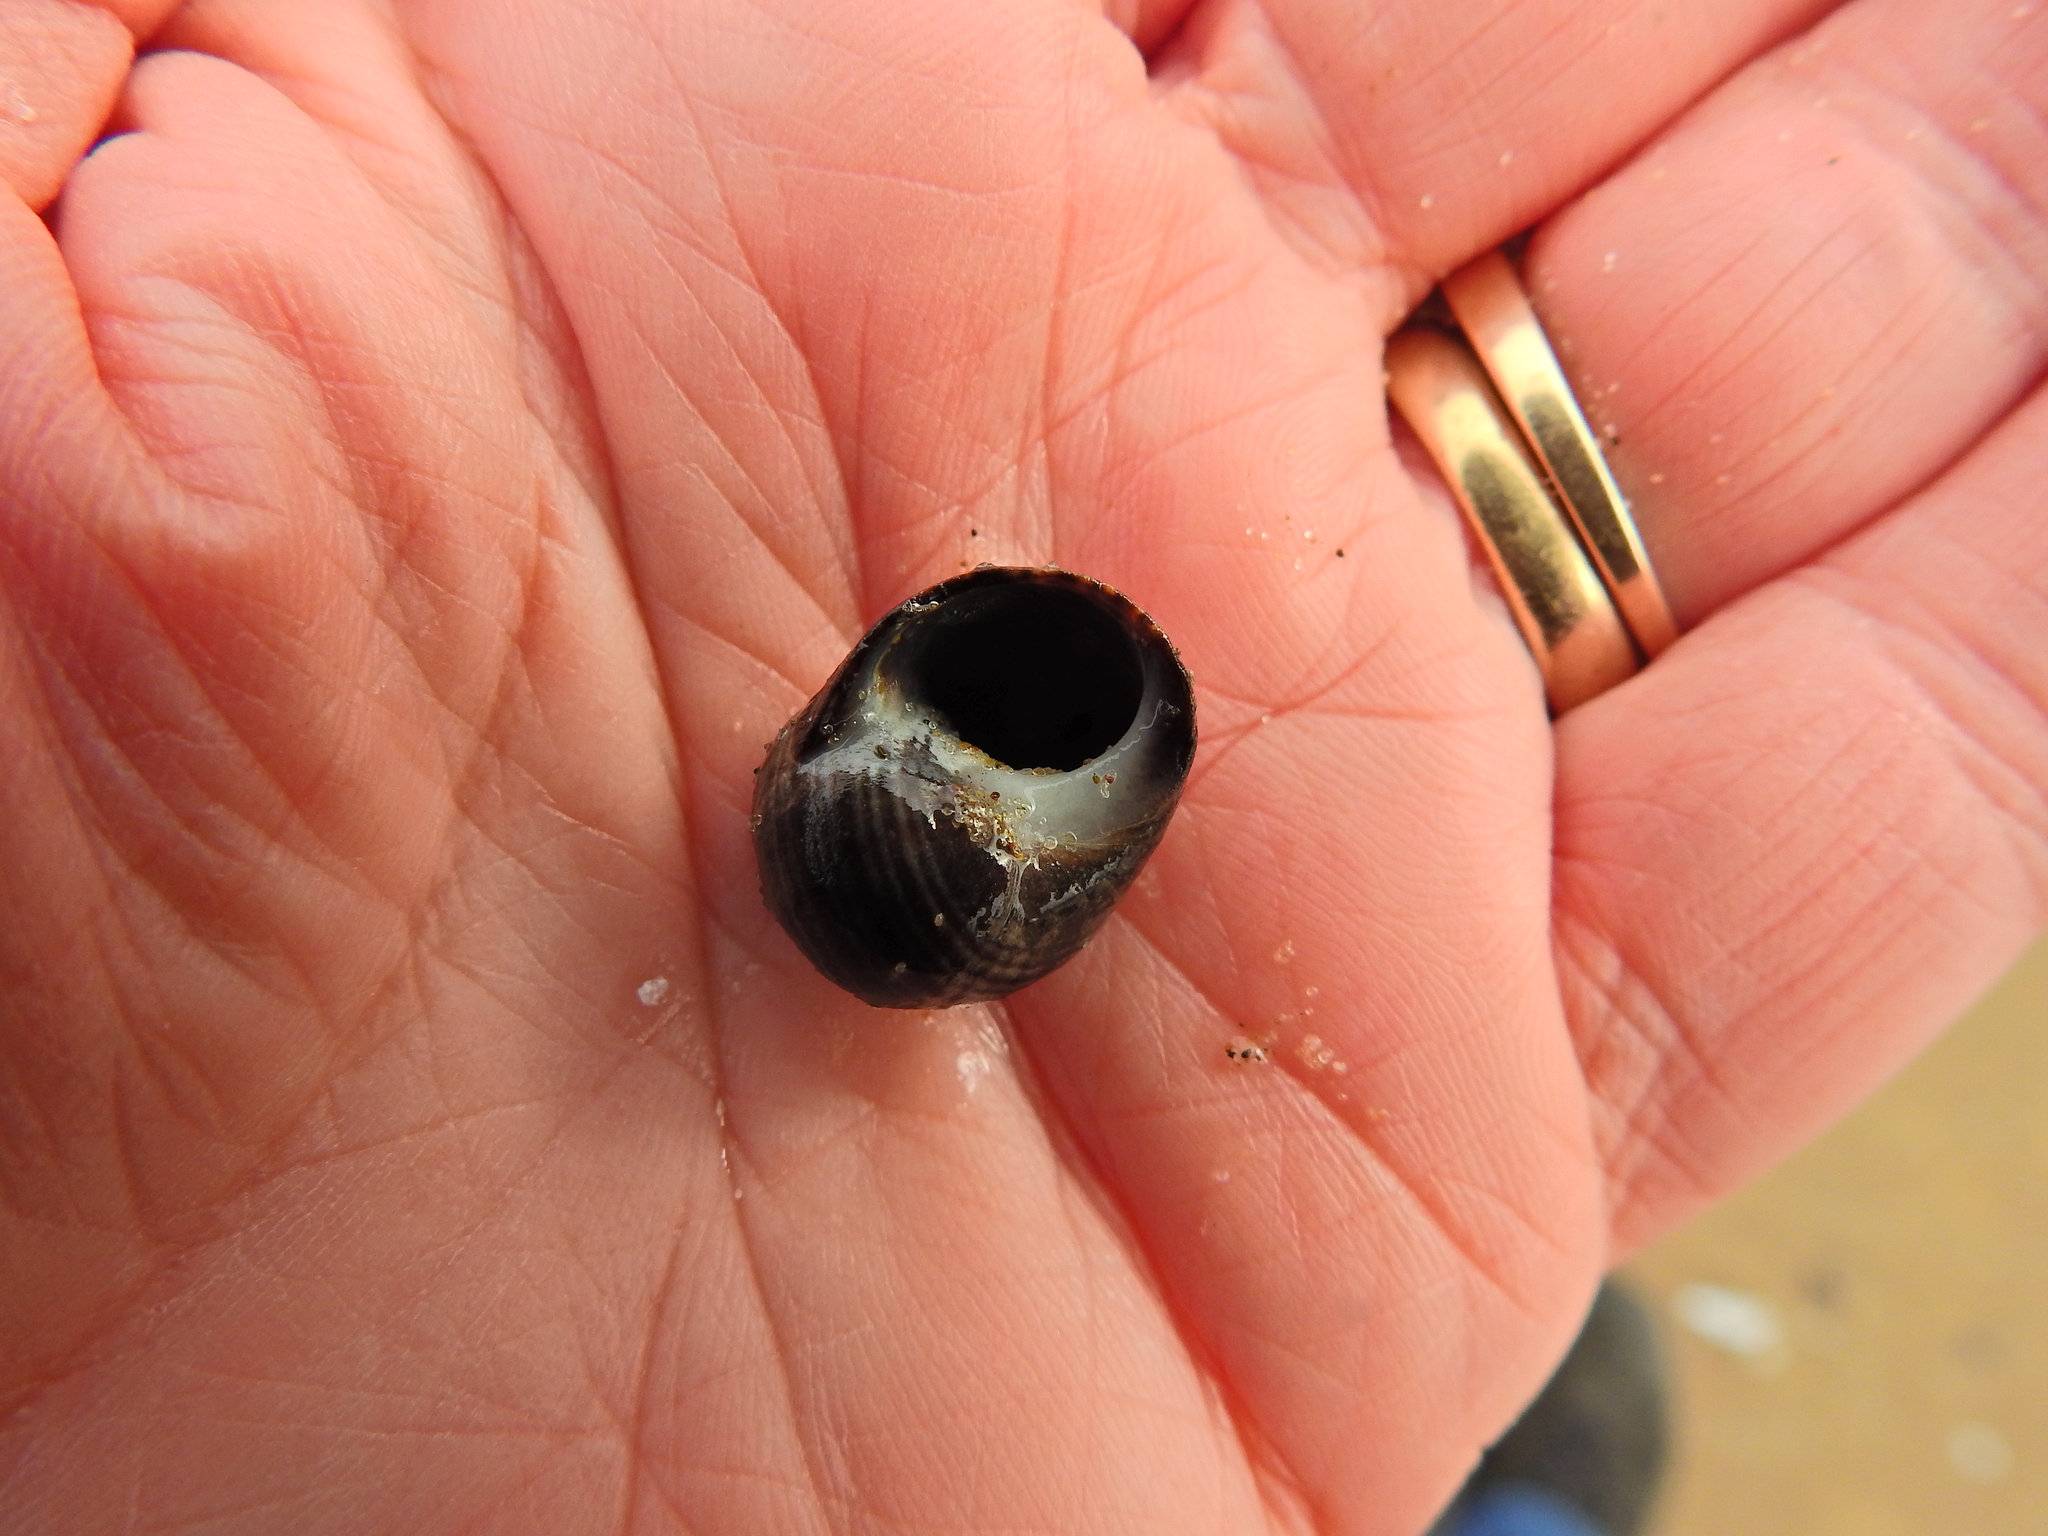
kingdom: Animalia
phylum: Mollusca
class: Gastropoda
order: Littorinimorpha
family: Littorinidae
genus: Littorina
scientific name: Littorina littorea
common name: Common periwinkle
